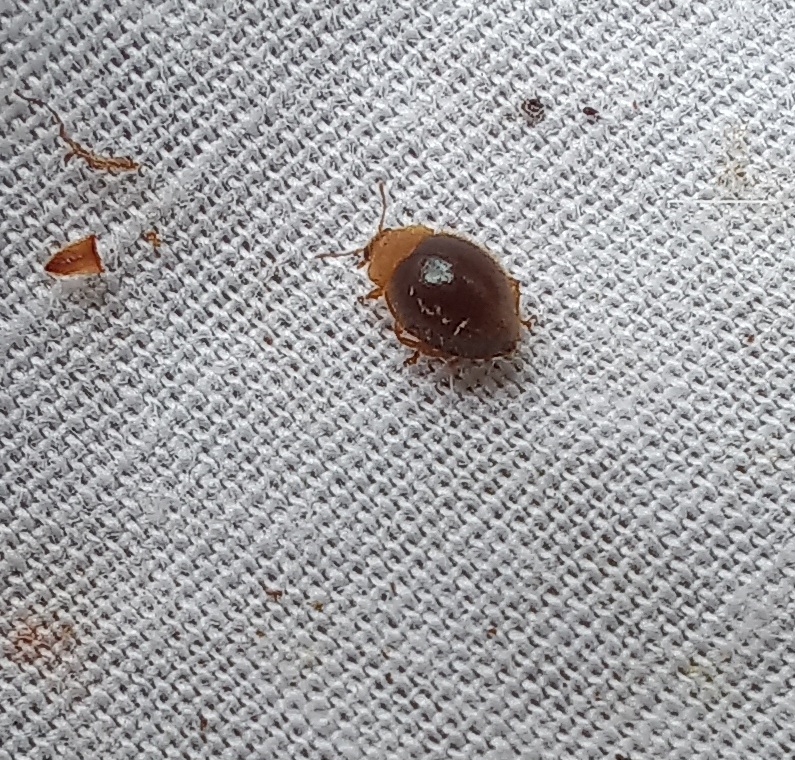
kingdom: Animalia
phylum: Arthropoda
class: Insecta
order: Coleoptera
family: Coccinellidae
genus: Adoxellus
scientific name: Adoxellus
